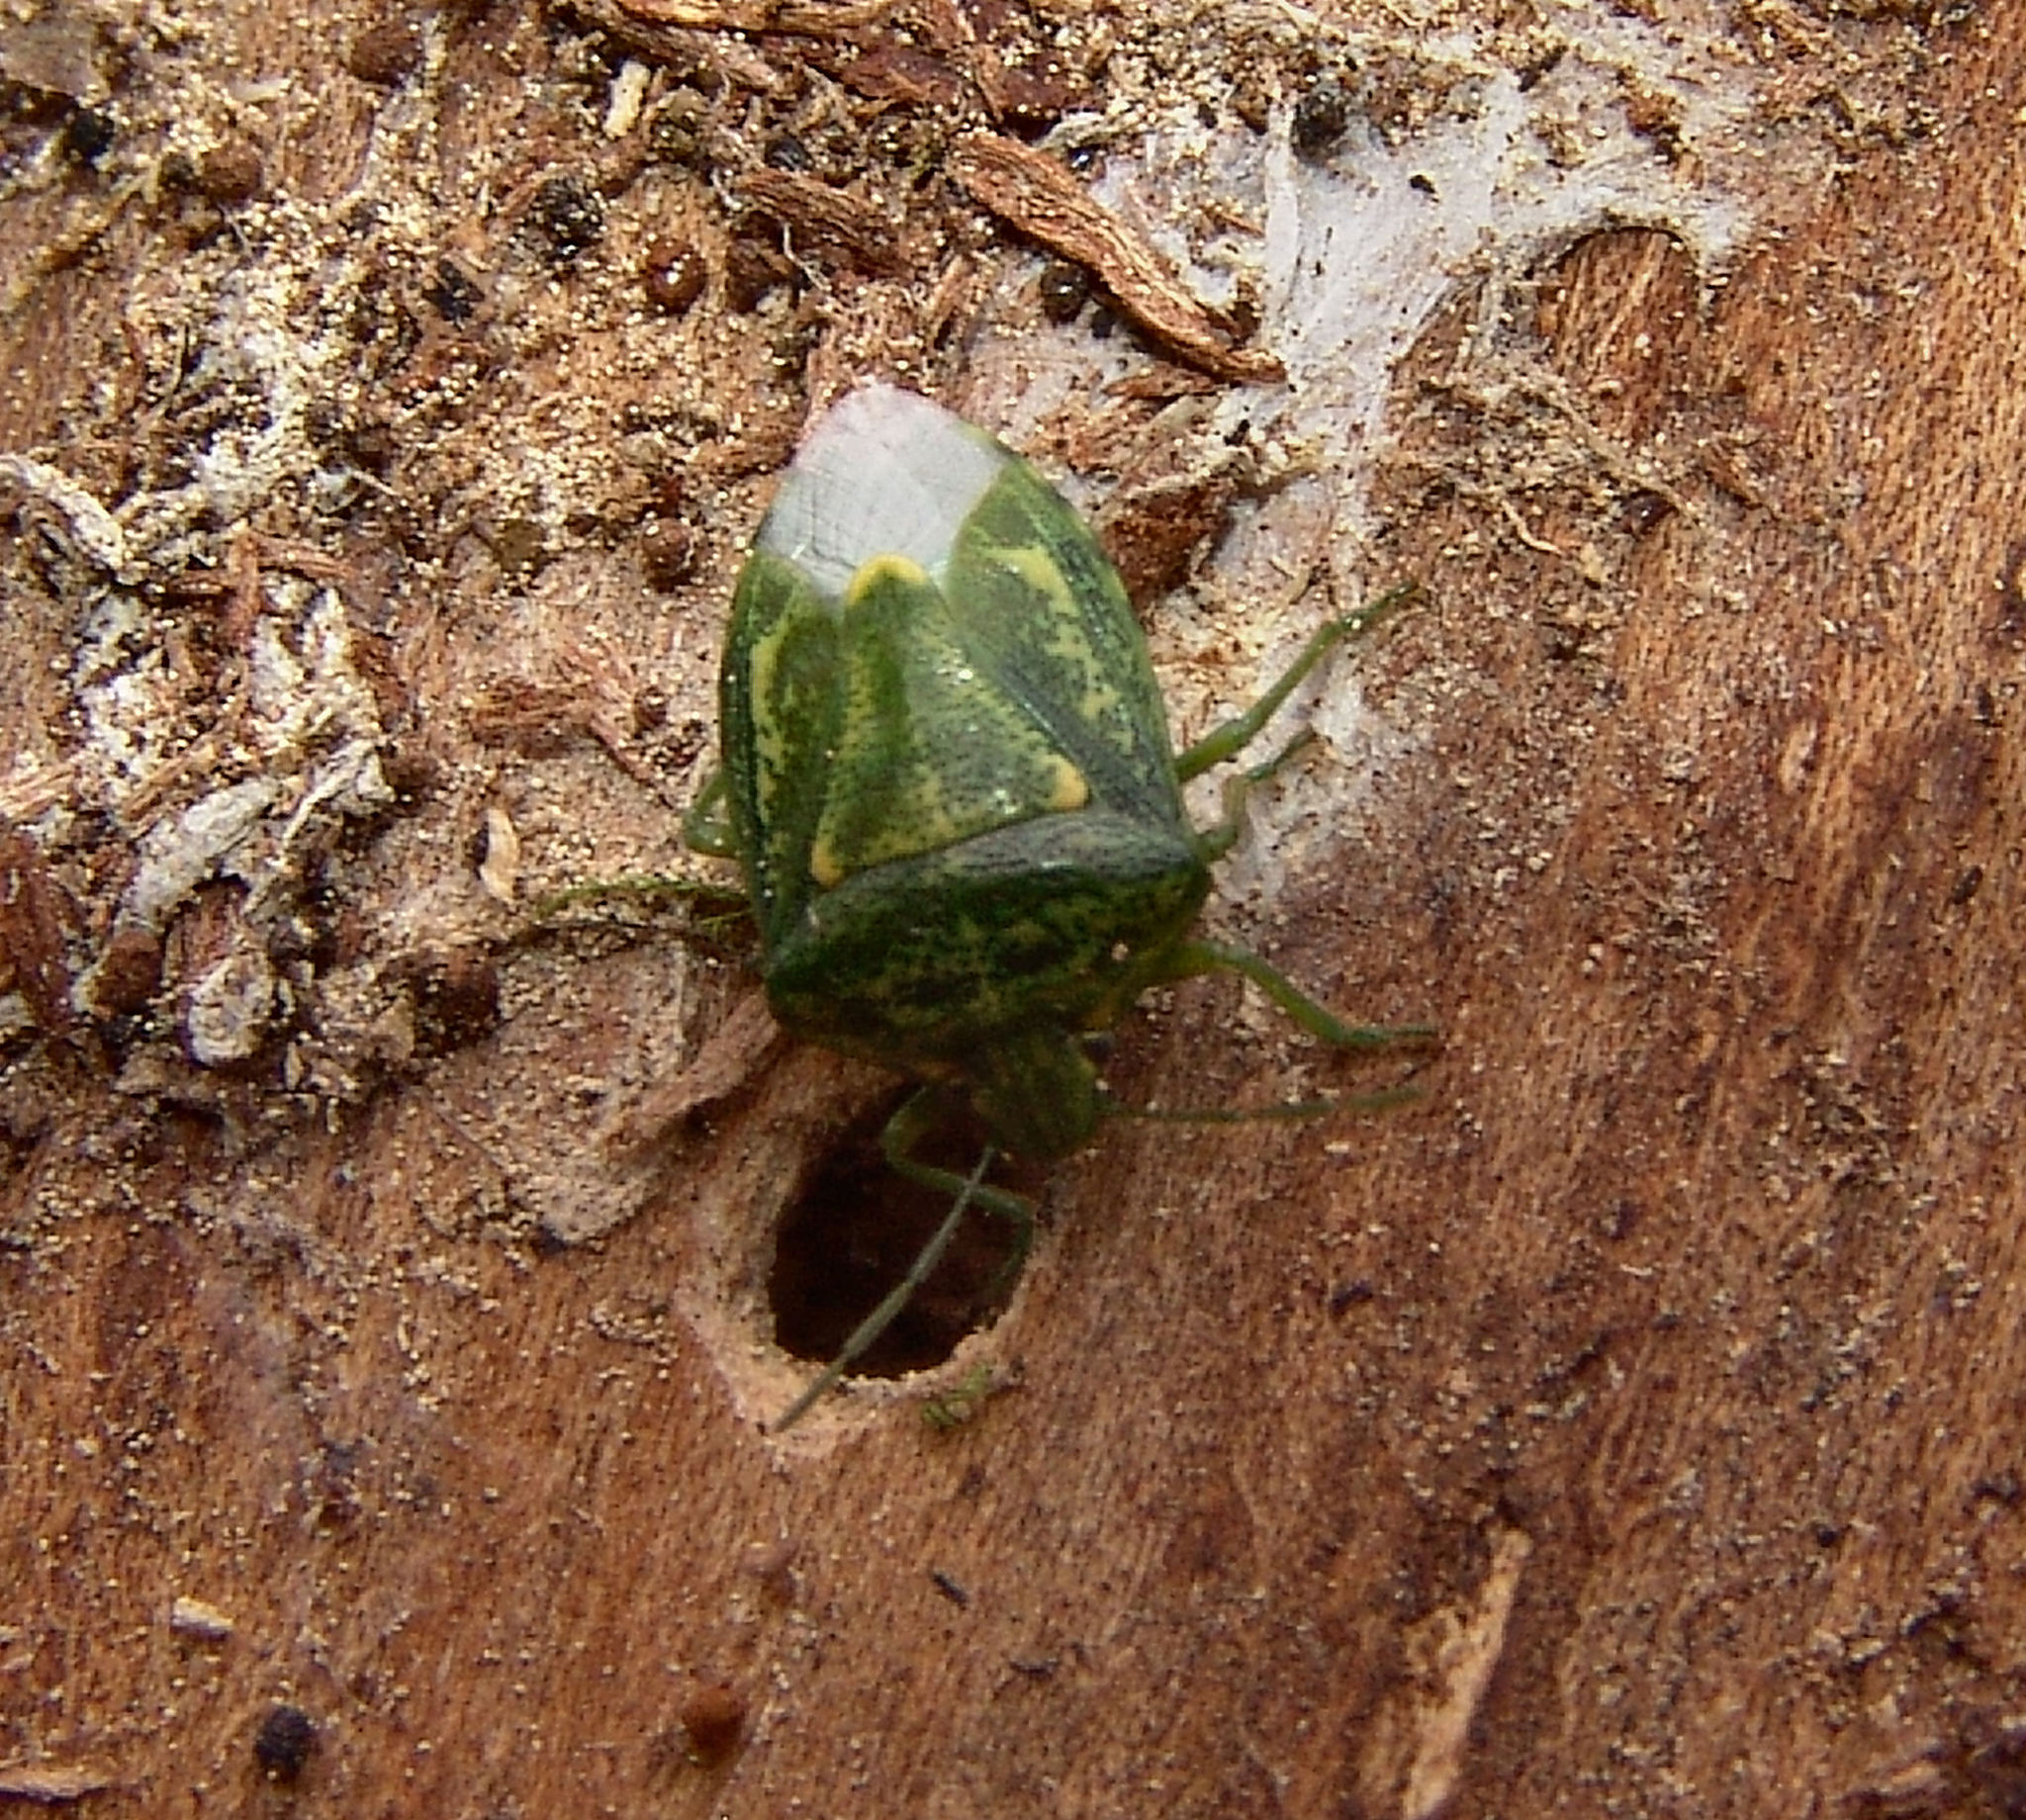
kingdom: Animalia
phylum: Arthropoda
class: Insecta
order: Hemiptera
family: Pentatomidae
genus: Banasa
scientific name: Banasa euchlora
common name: Cedar berry bug
